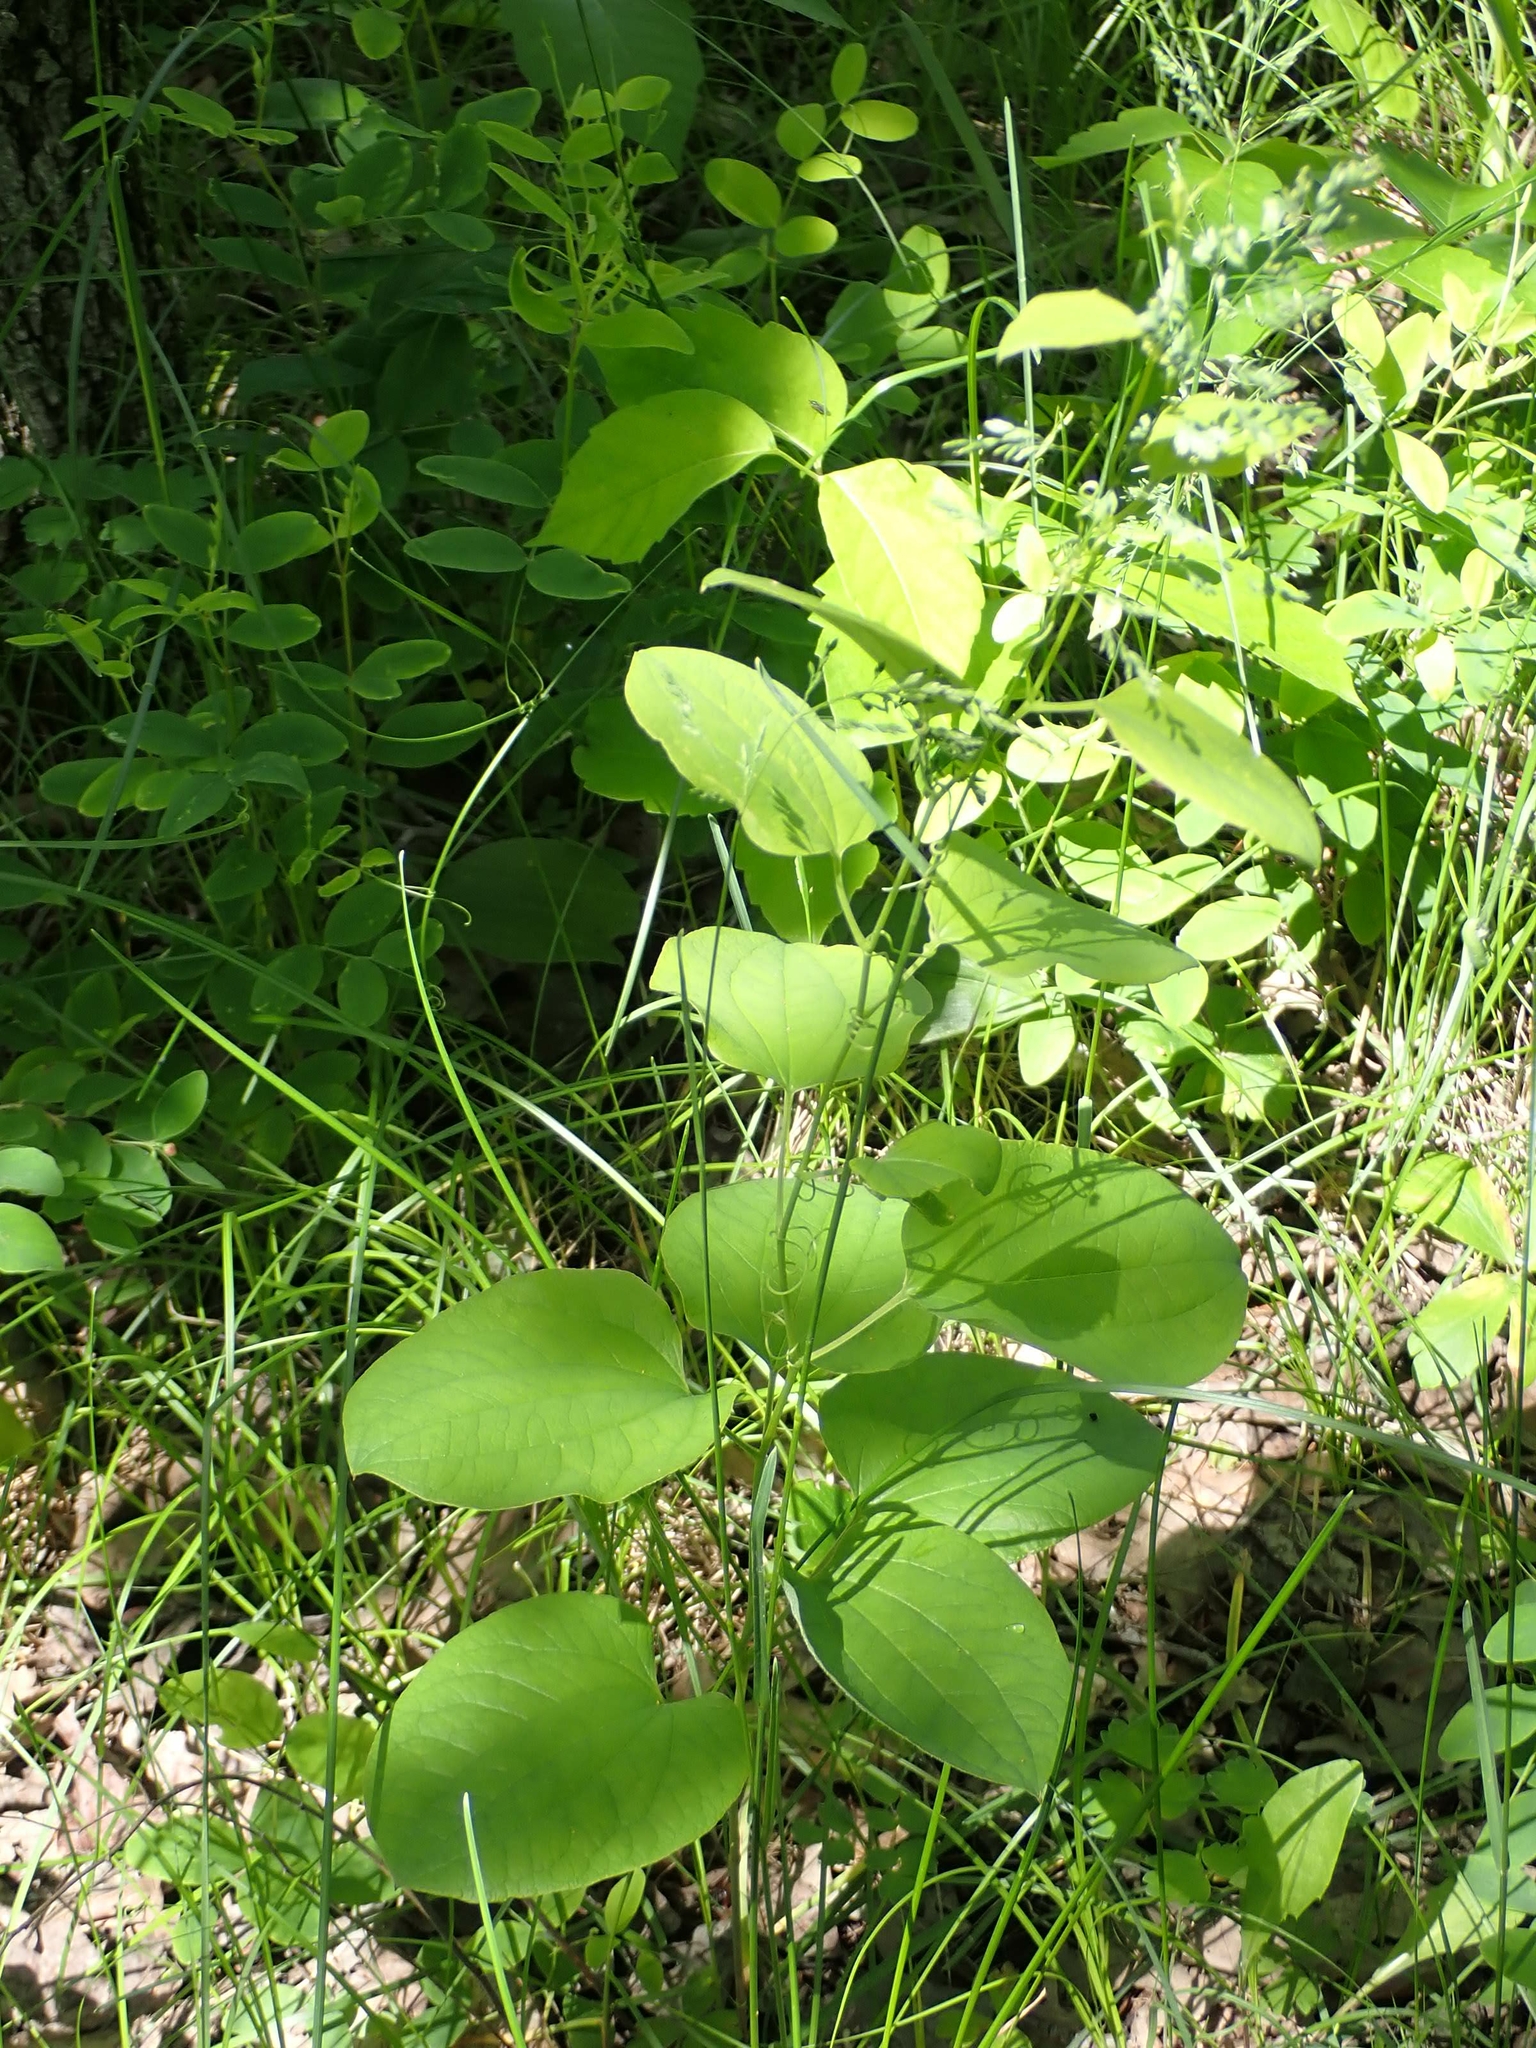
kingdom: Plantae
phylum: Tracheophyta
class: Liliopsida
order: Liliales
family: Smilacaceae
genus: Smilax
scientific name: Smilax lasioneura
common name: Blue ridge carrionflower
